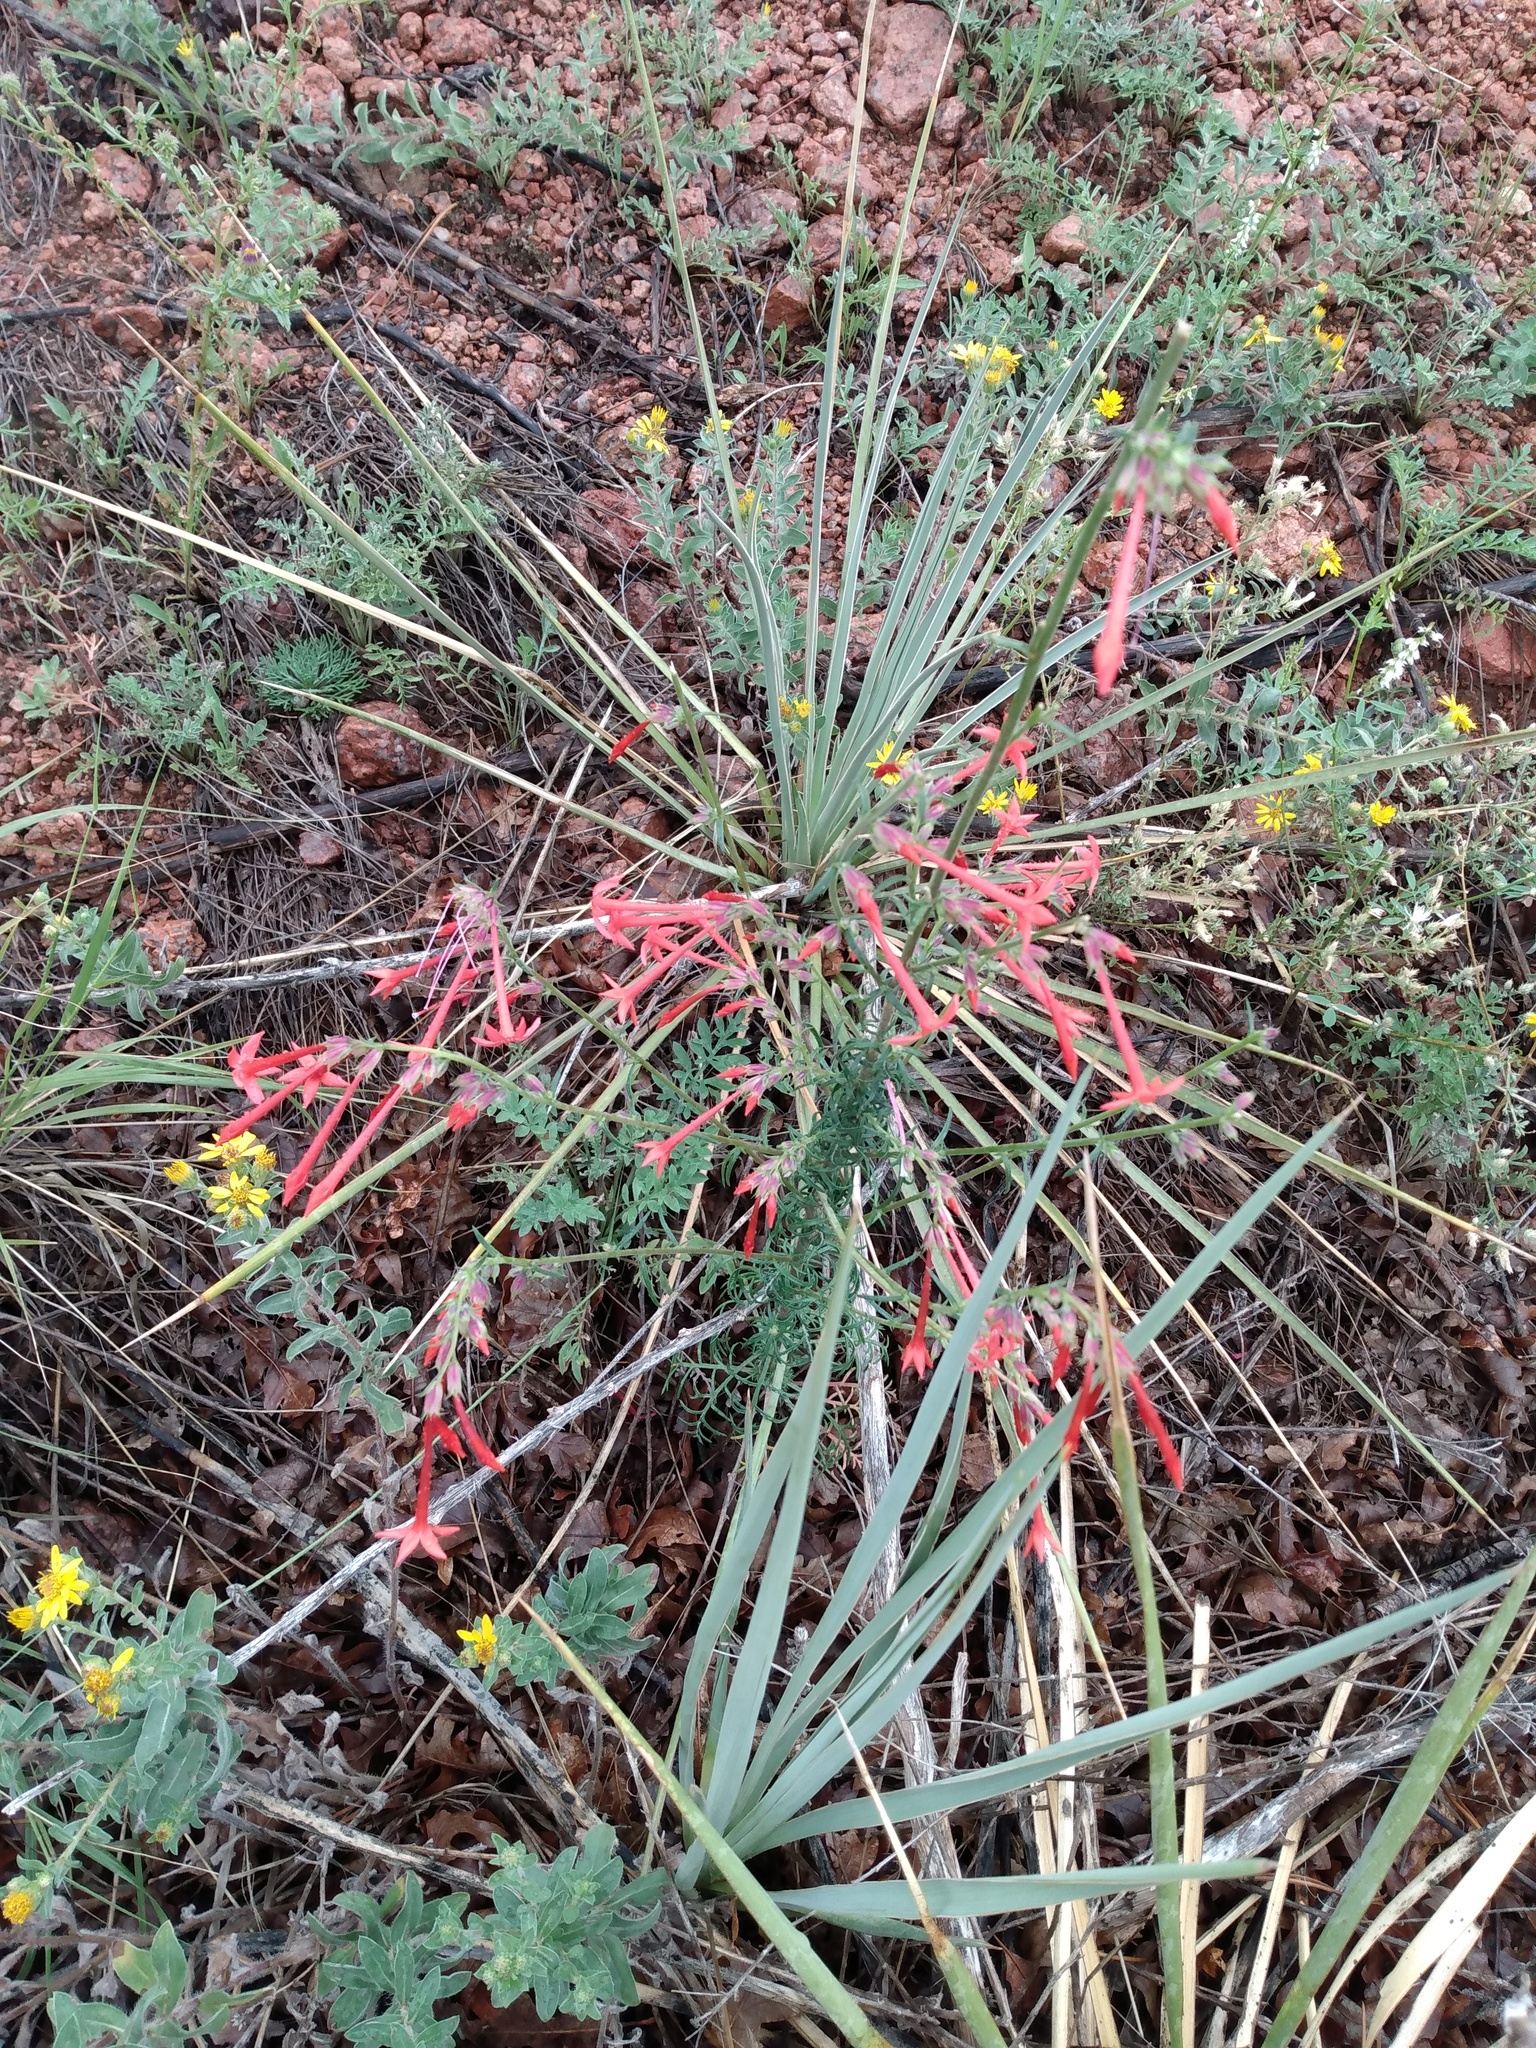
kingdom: Plantae
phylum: Tracheophyta
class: Magnoliopsida
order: Ericales
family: Polemoniaceae
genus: Ipomopsis
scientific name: Ipomopsis aggregata
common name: Scarlet gilia
